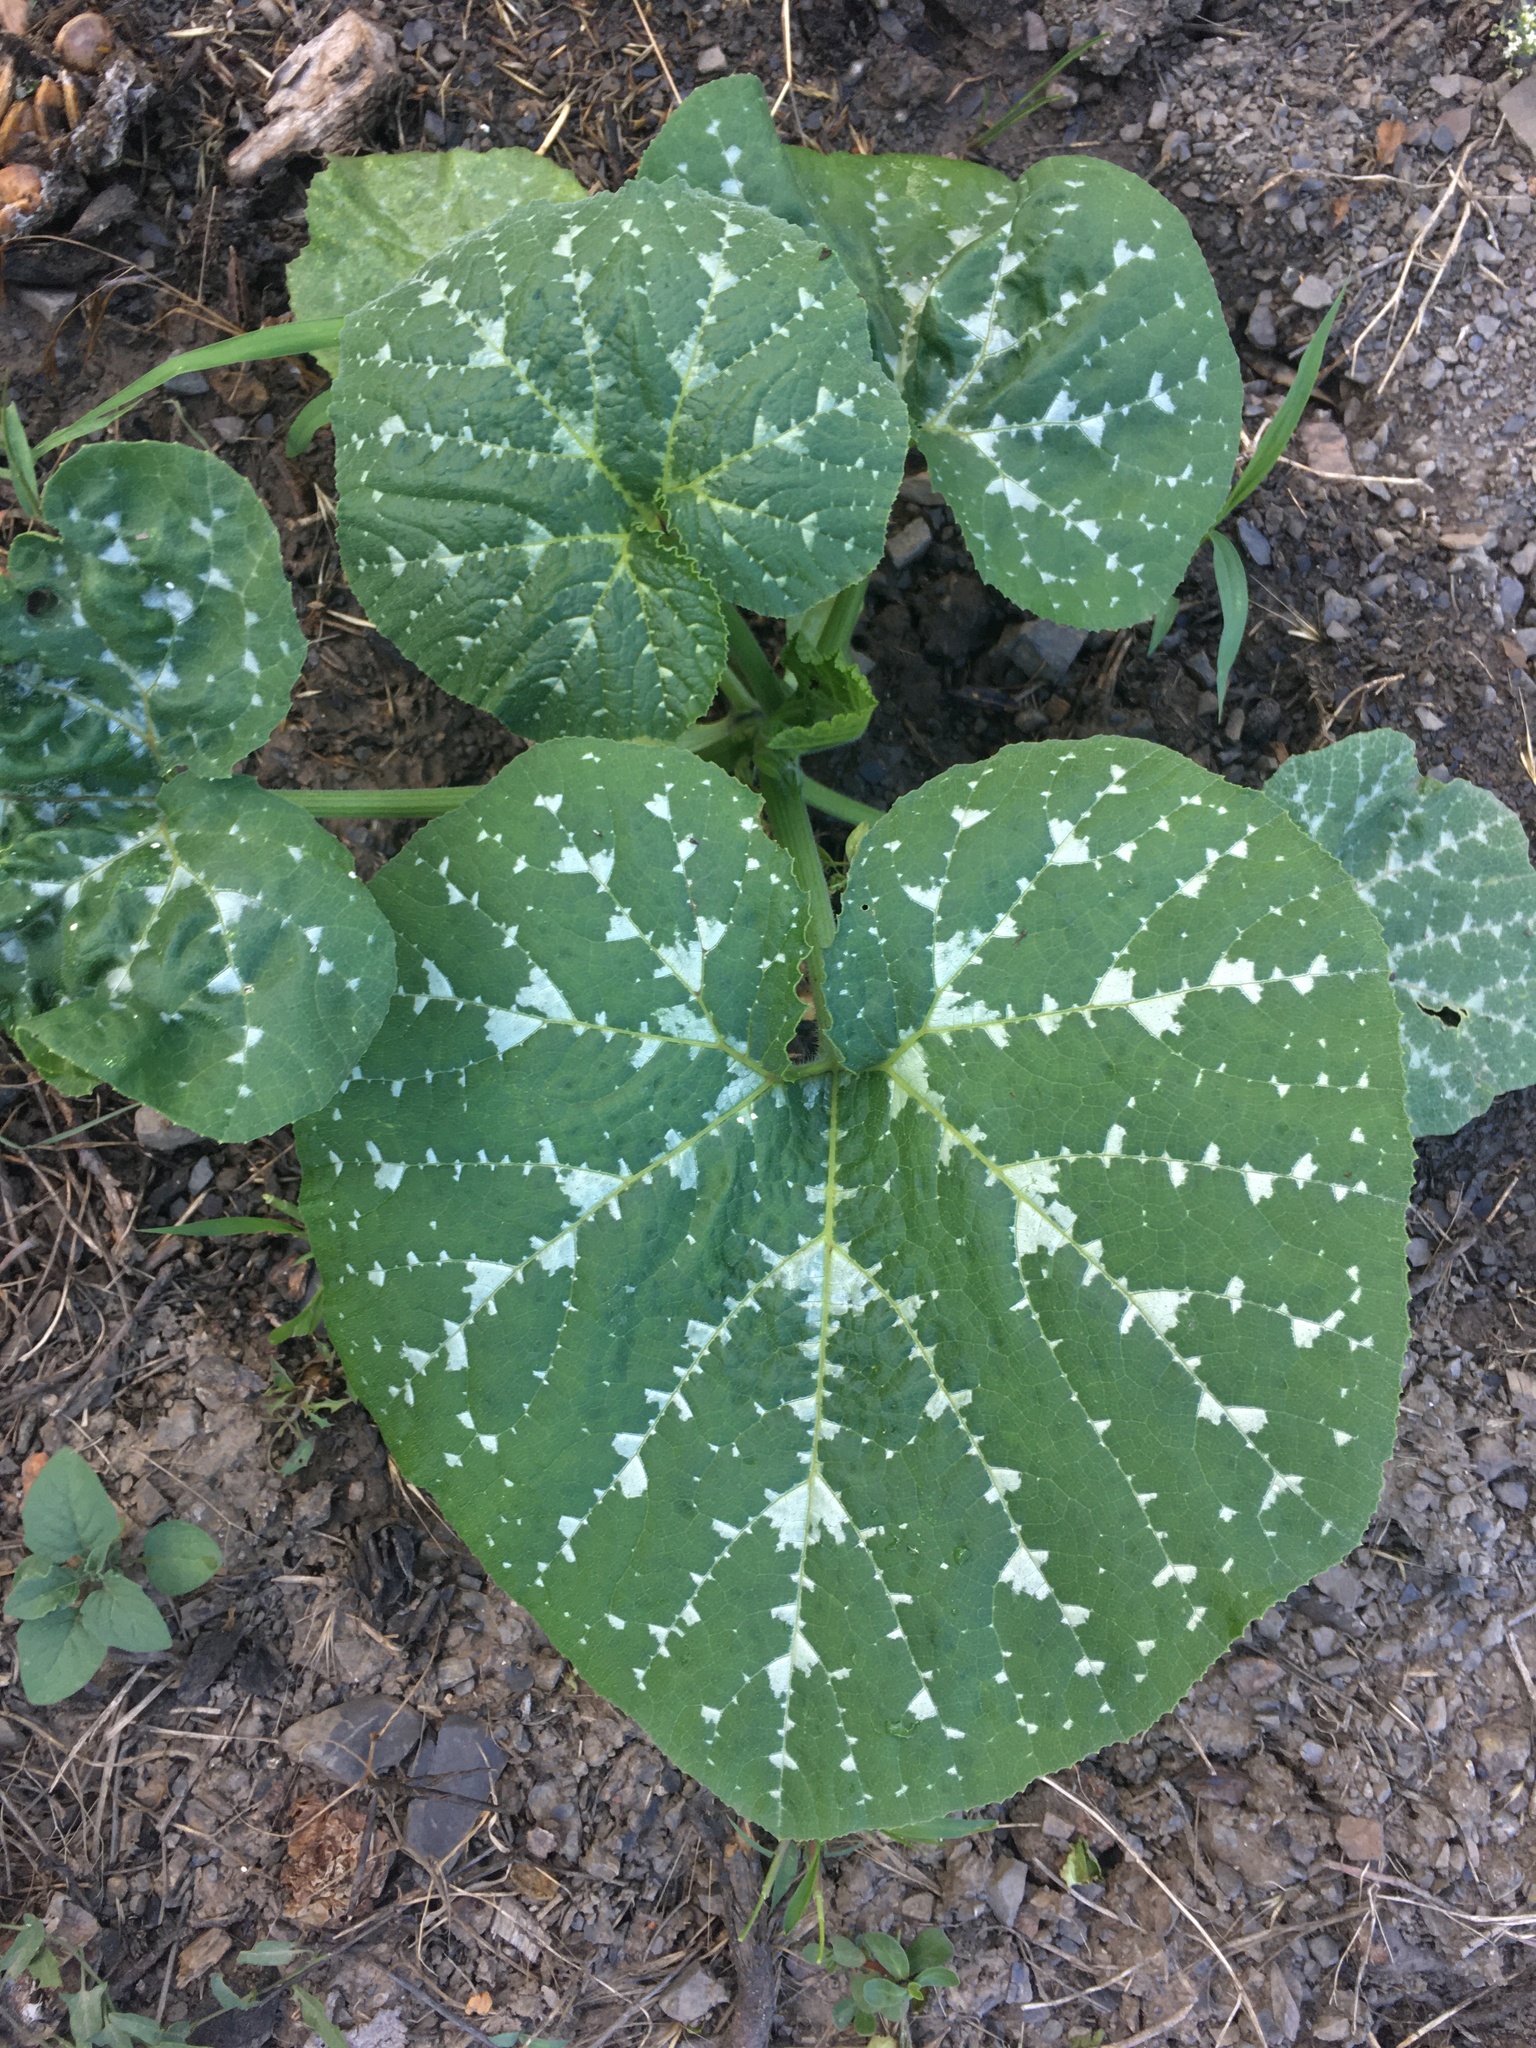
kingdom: Plantae
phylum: Tracheophyta
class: Magnoliopsida
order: Cucurbitales
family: Cucurbitaceae
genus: Cucurbita
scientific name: Cucurbita pepo
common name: Marrow
